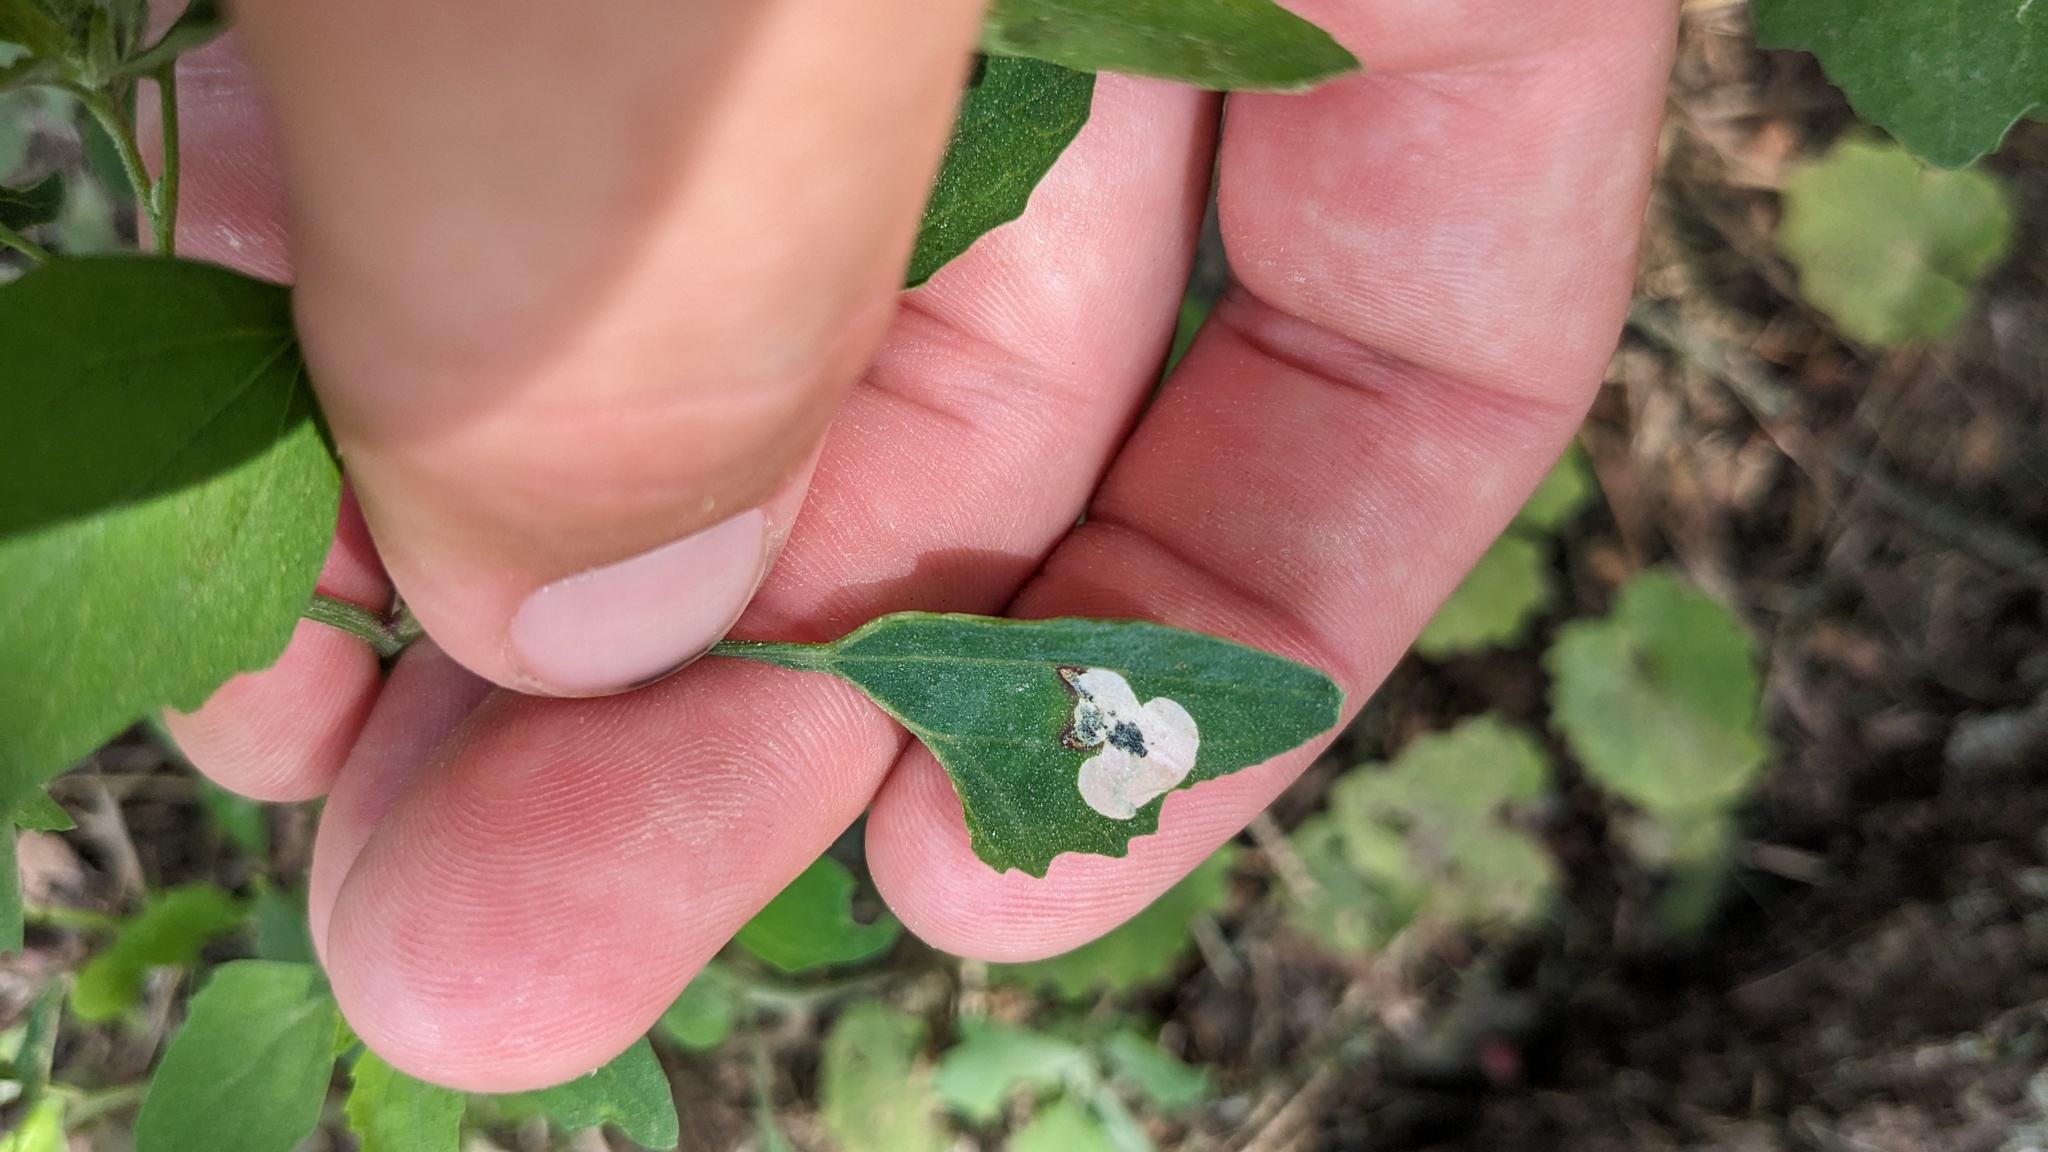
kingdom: Animalia
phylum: Arthropoda
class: Insecta
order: Lepidoptera
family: Gelechiidae
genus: Chrysoesthia
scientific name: Chrysoesthia sexguttella
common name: Moth
